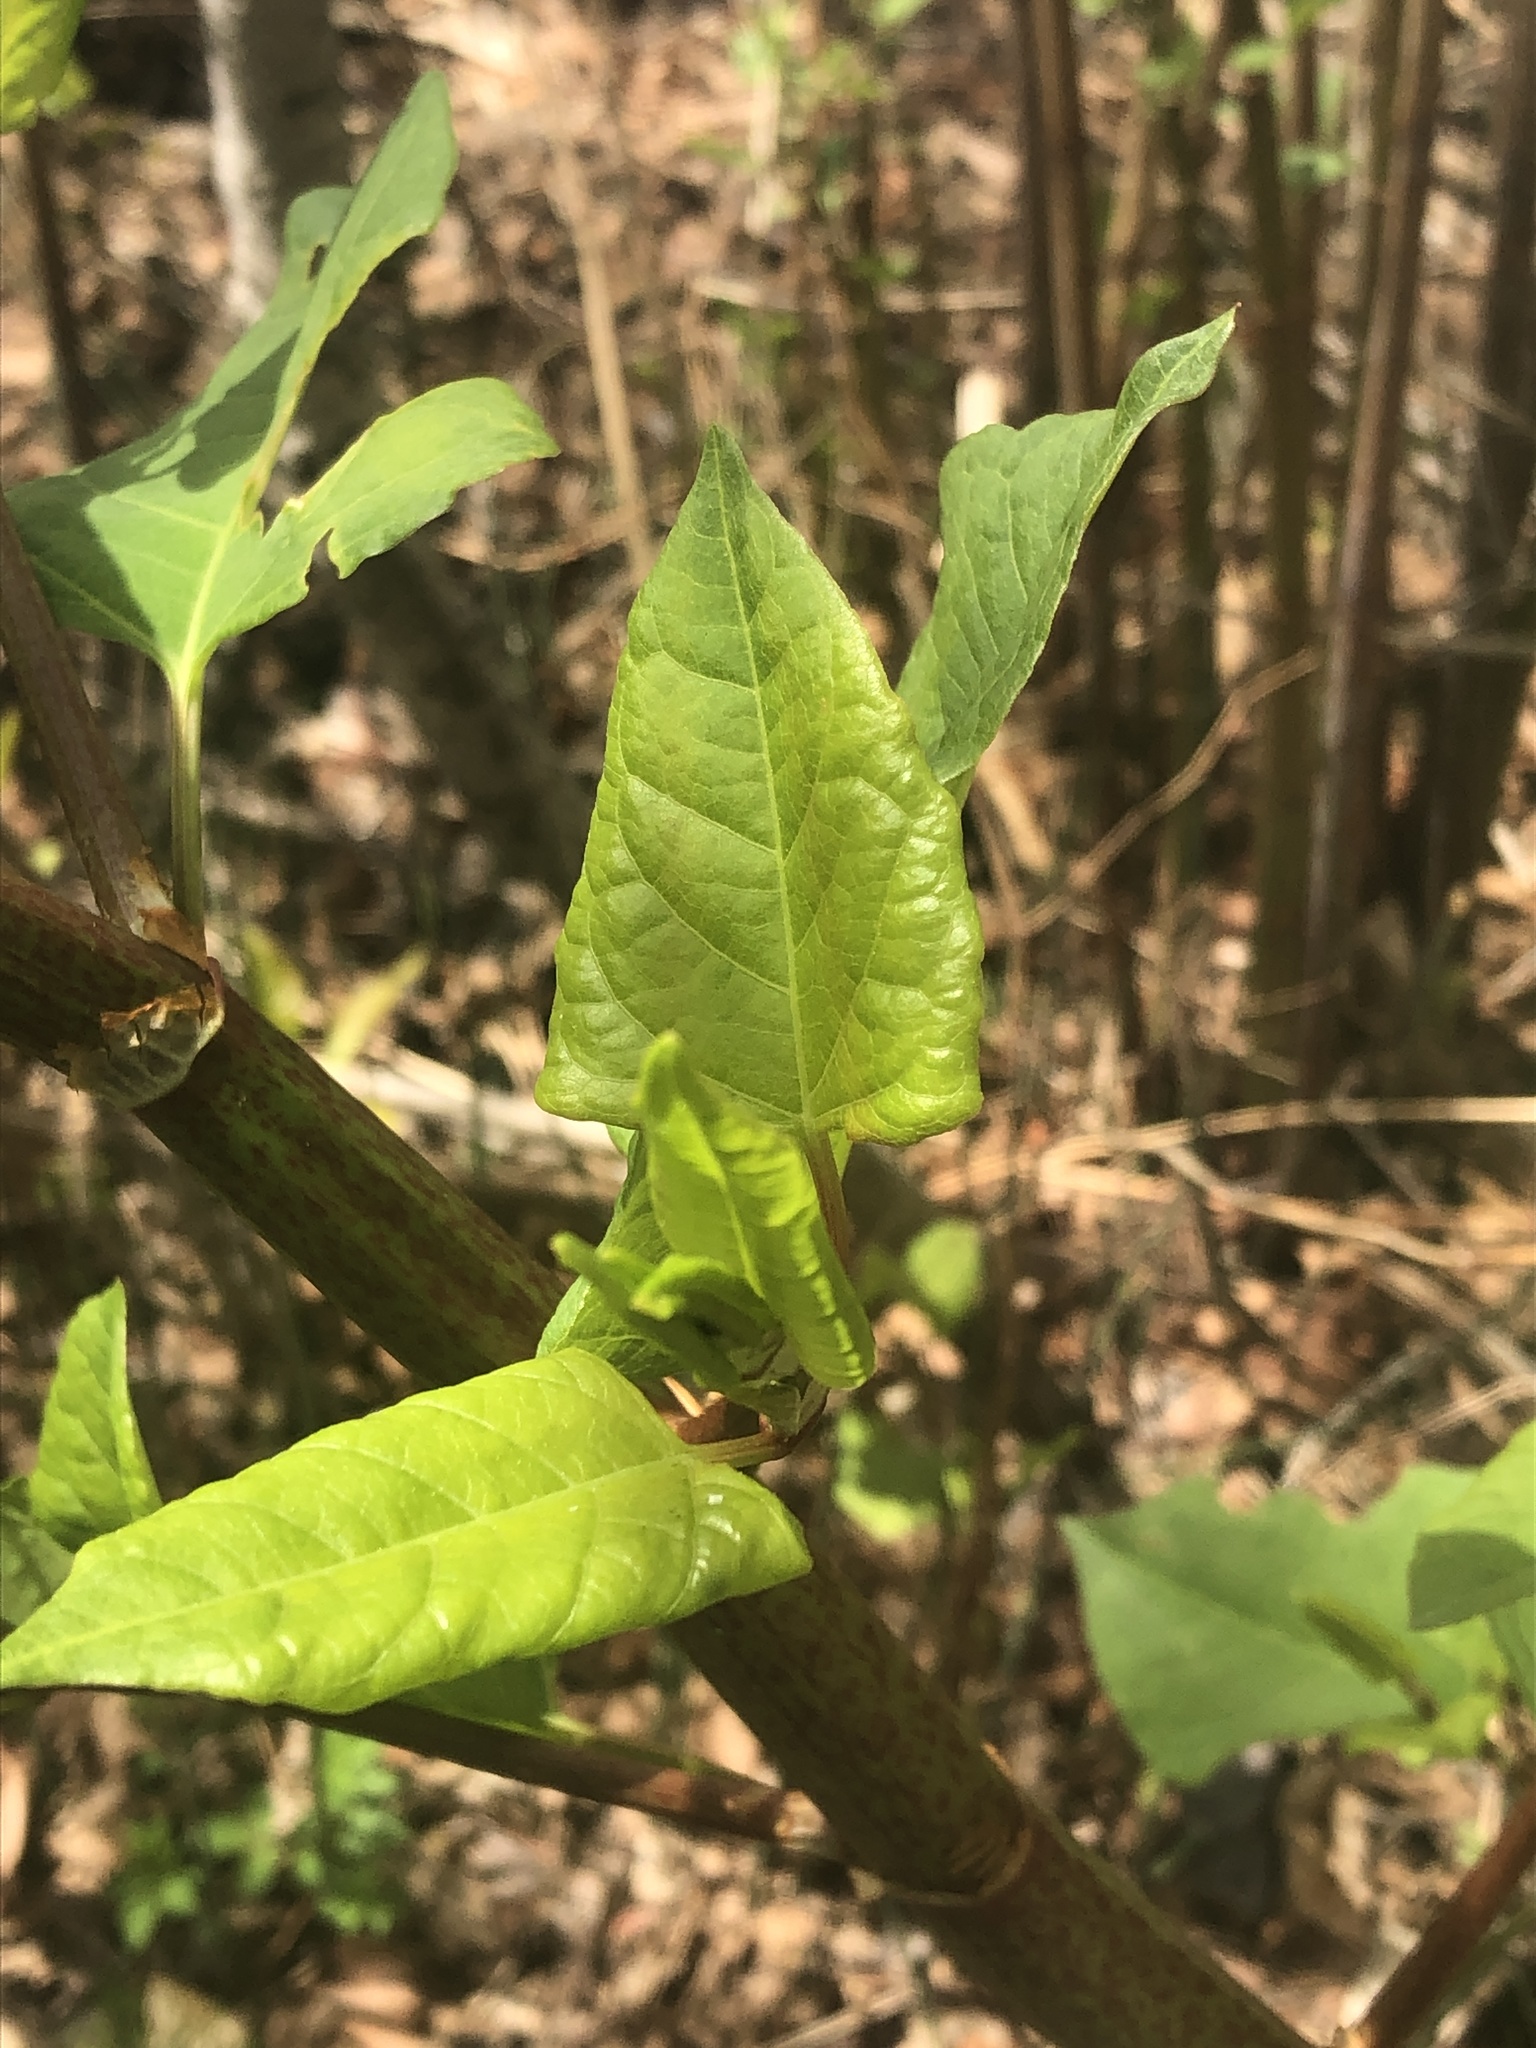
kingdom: Plantae
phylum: Tracheophyta
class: Magnoliopsida
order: Caryophyllales
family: Polygonaceae
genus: Reynoutria
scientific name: Reynoutria japonica
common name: Japanese knotweed
